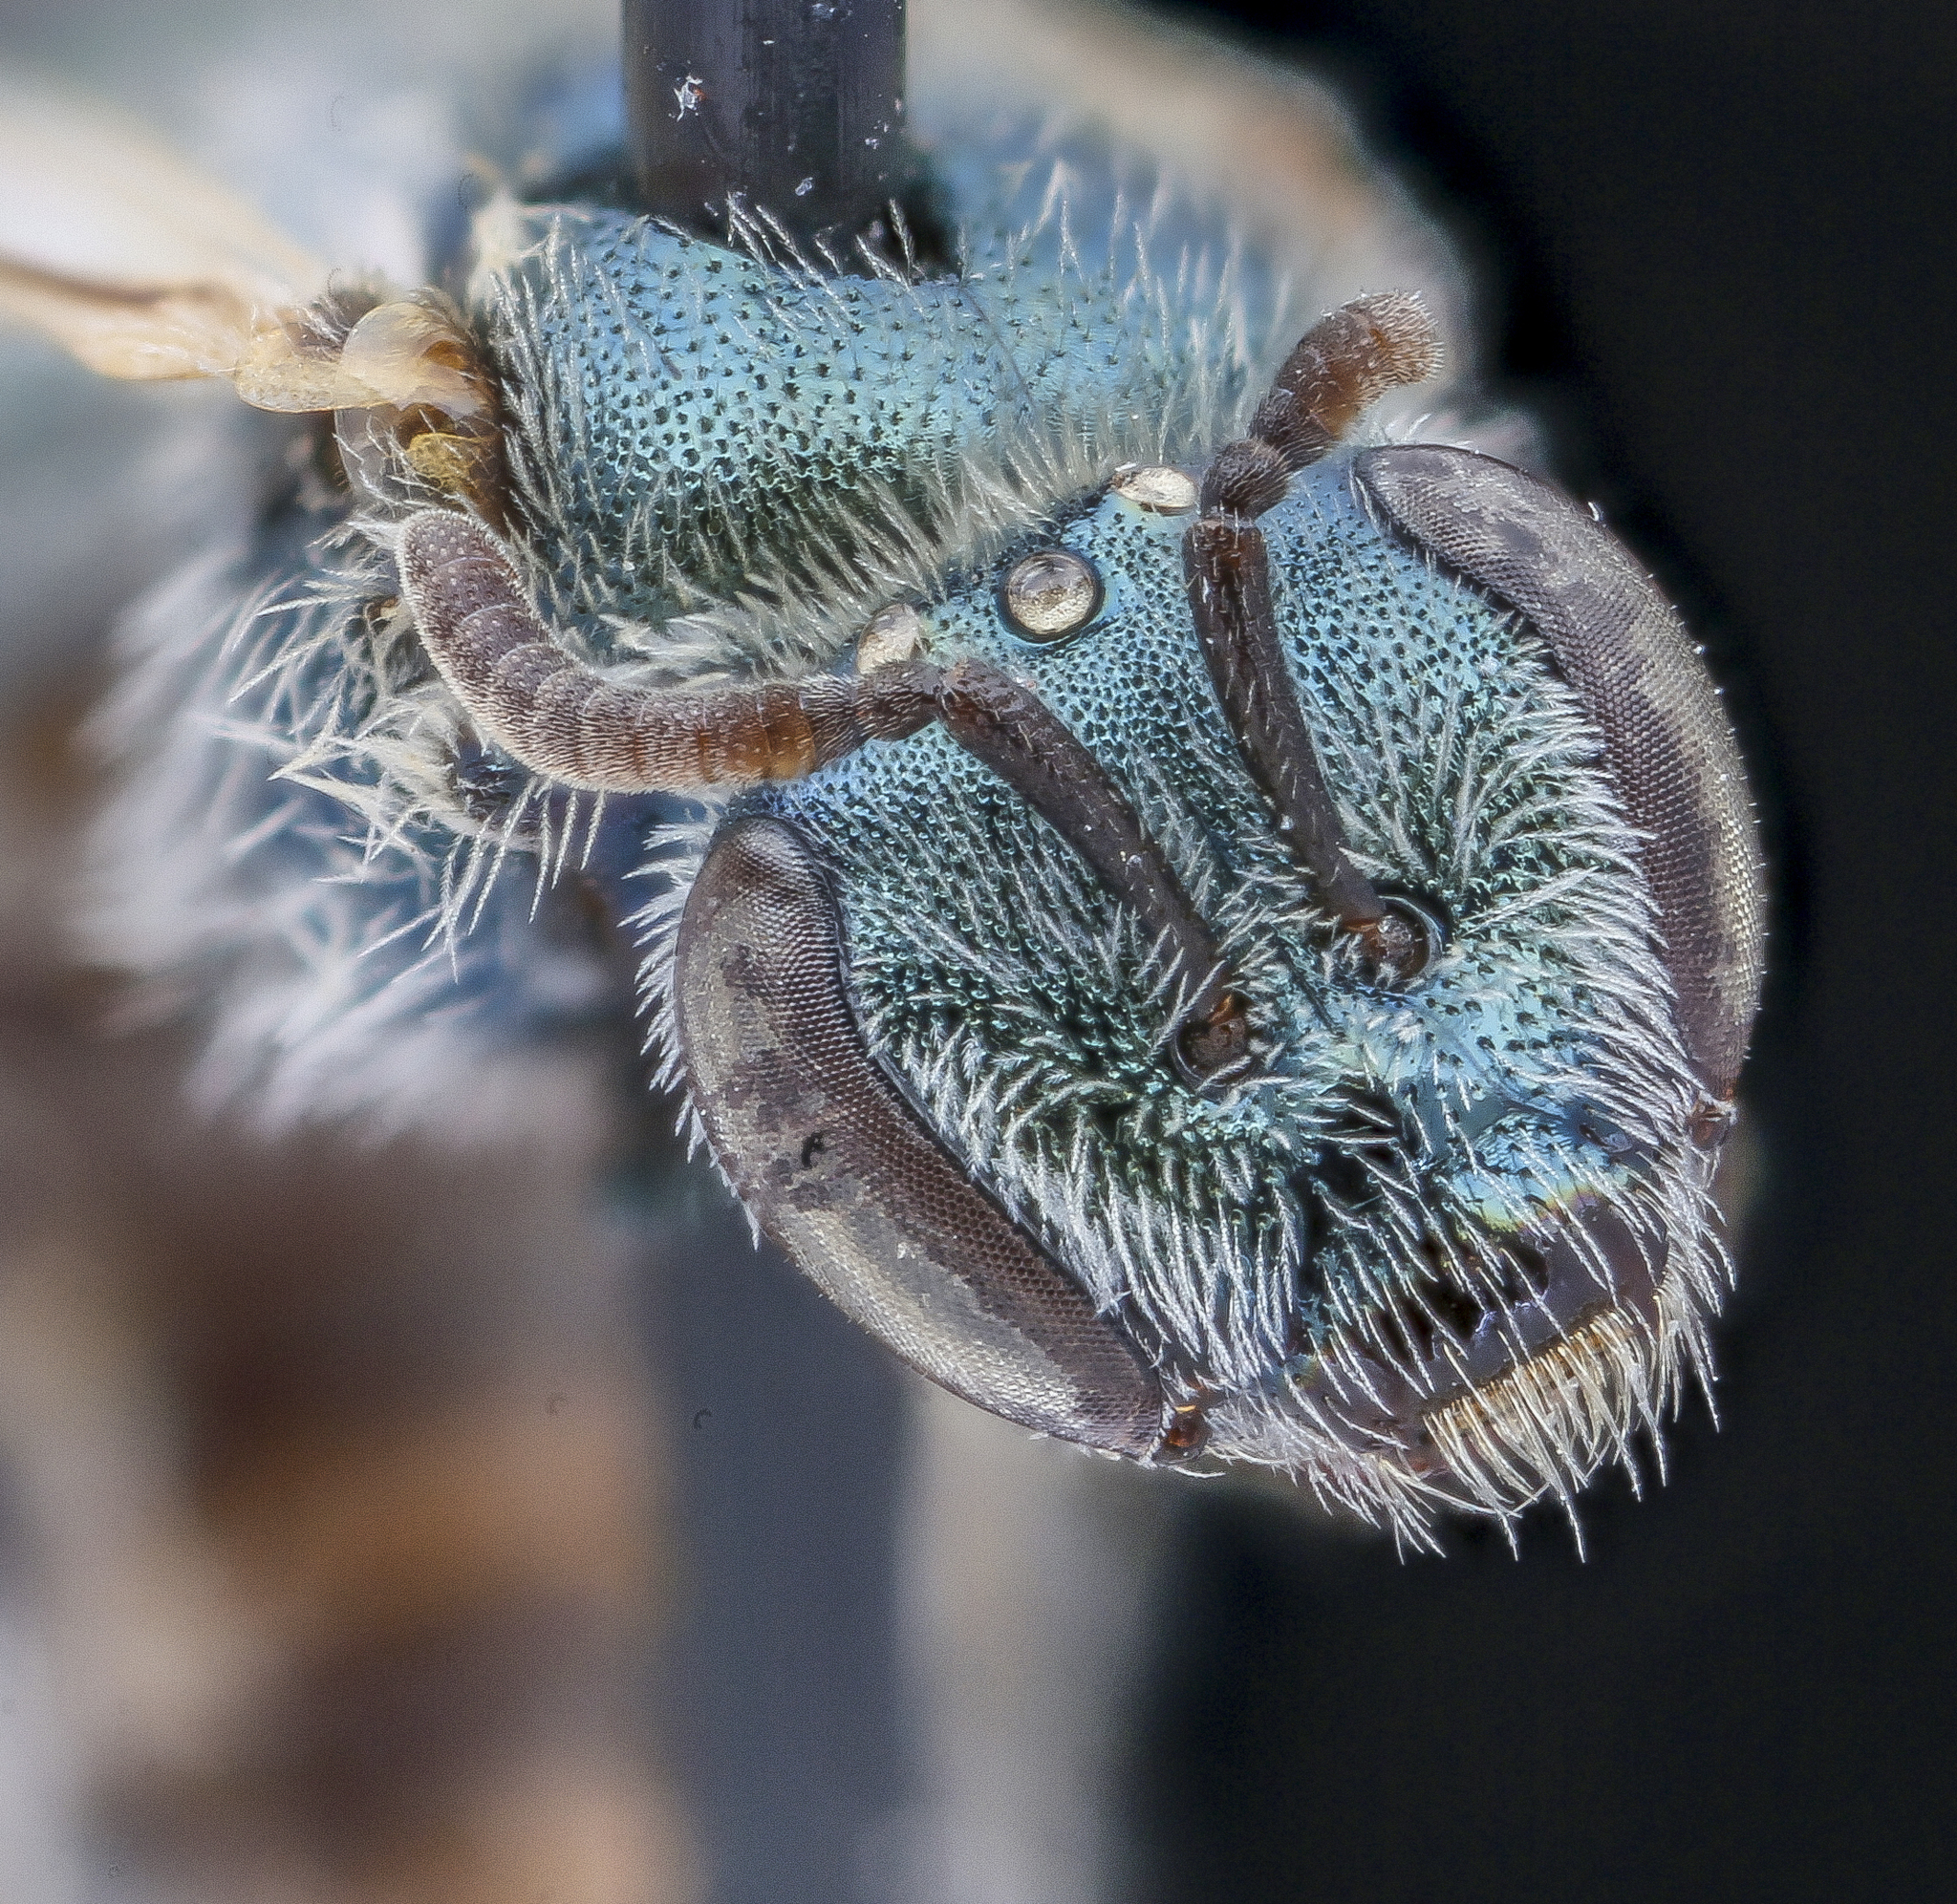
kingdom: Animalia
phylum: Arthropoda
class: Insecta
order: Hymenoptera
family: Halictidae
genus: Lasioglossum
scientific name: Lasioglossum semicaeruleum
